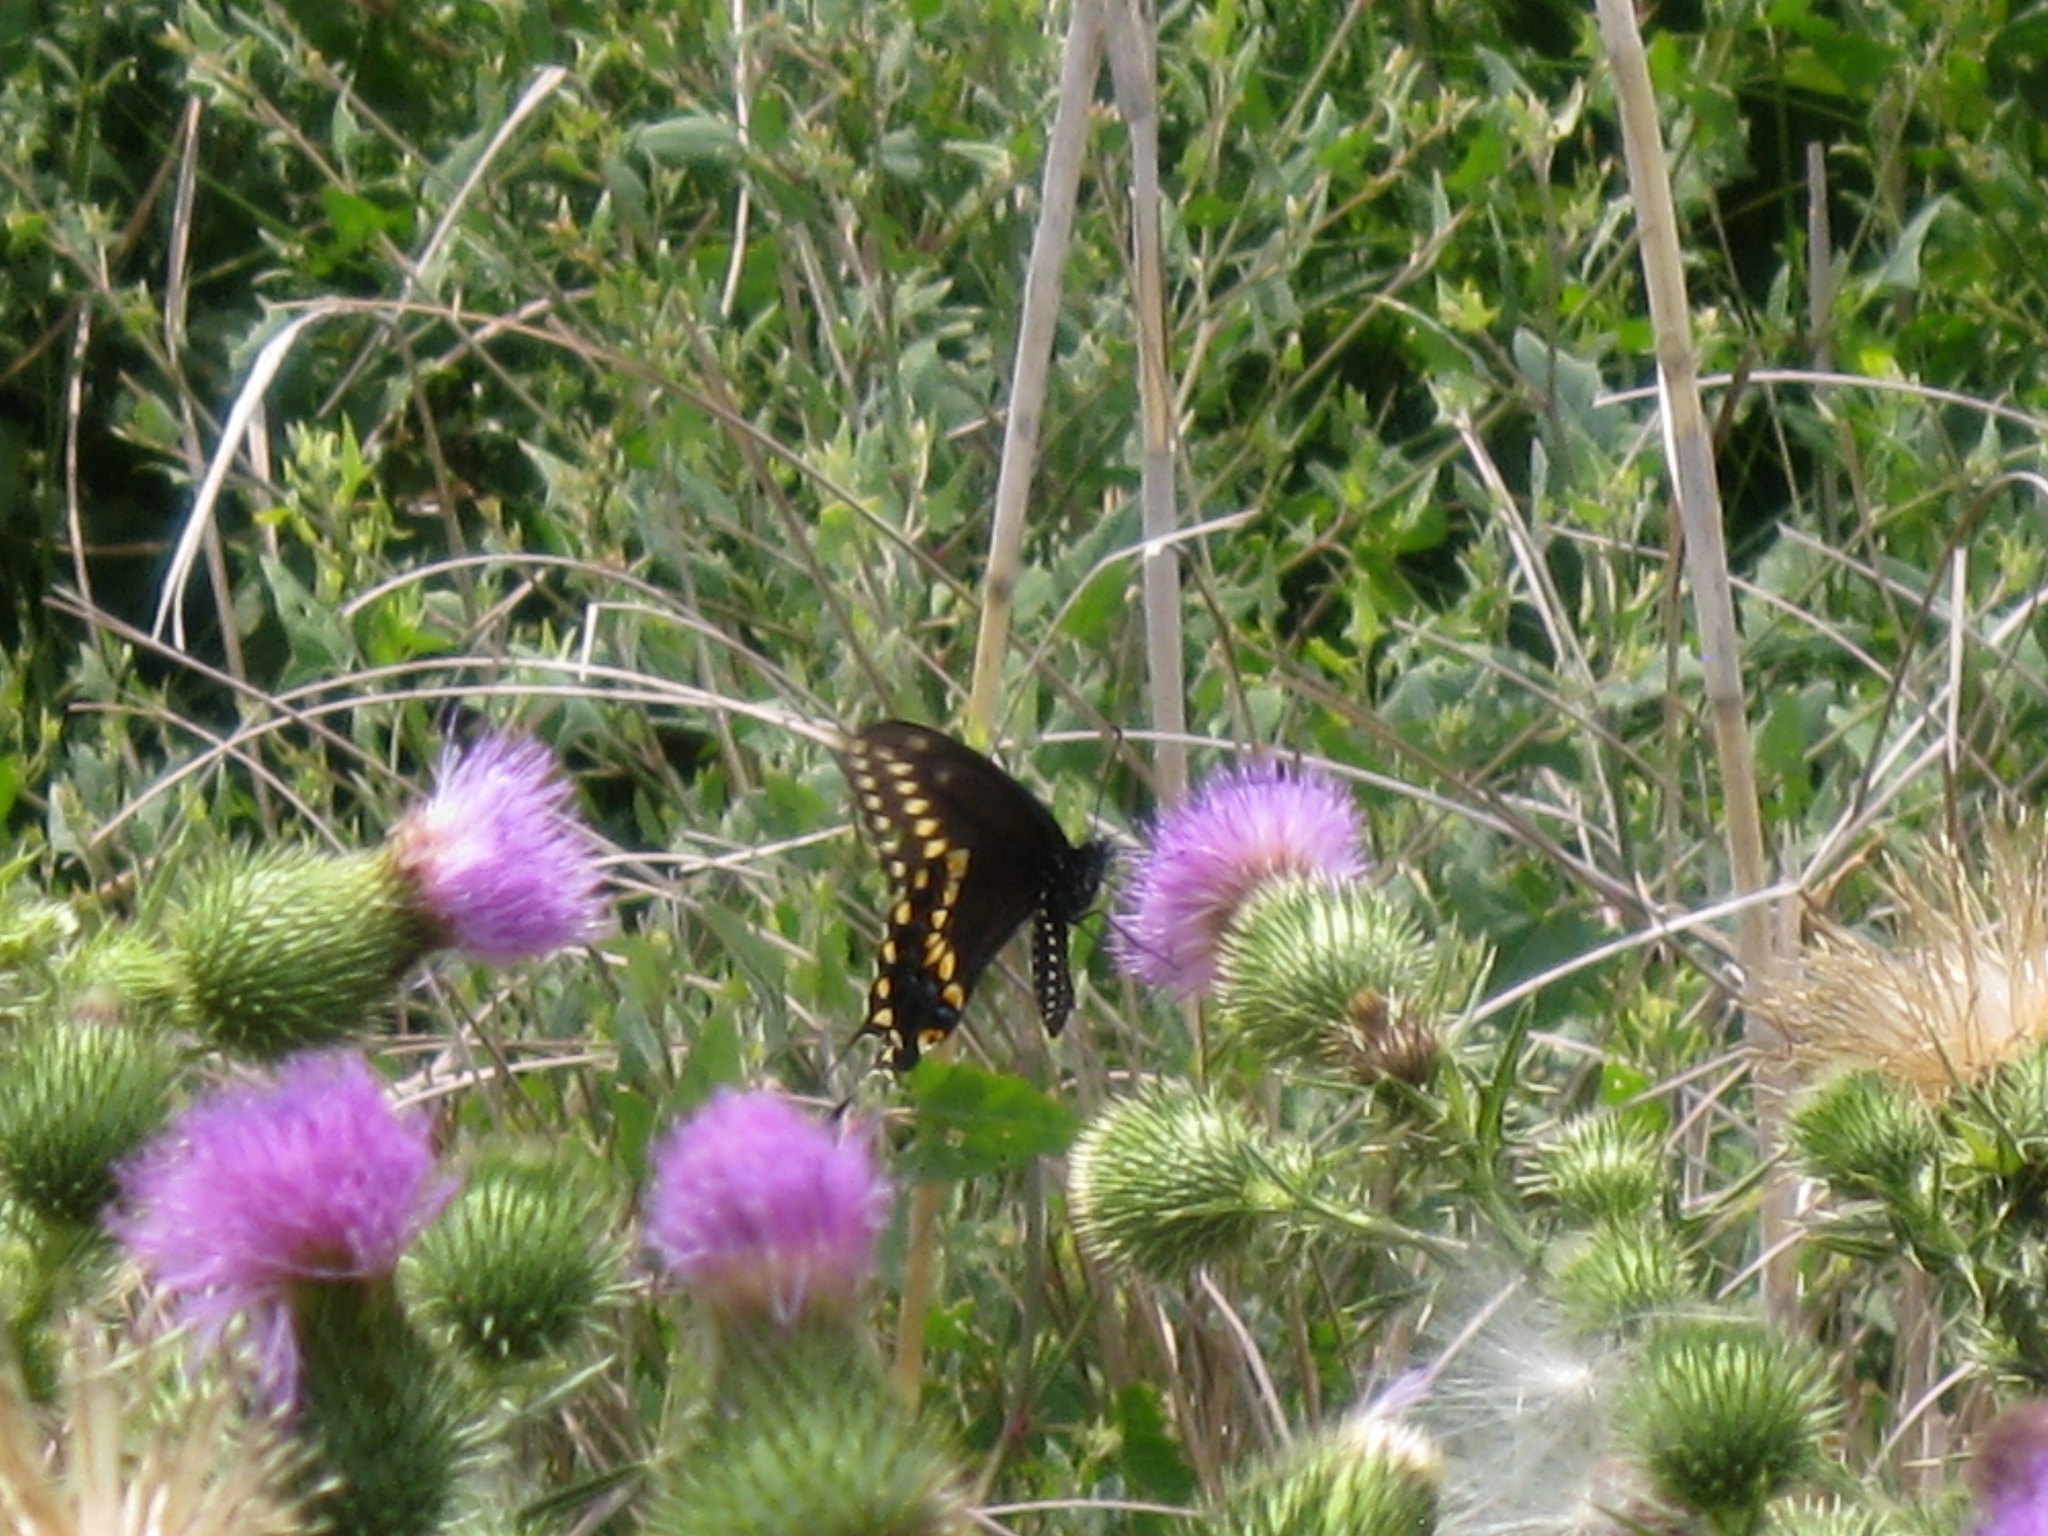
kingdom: Animalia
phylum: Arthropoda
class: Insecta
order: Lepidoptera
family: Papilionidae
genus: Papilio
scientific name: Papilio polyxenes
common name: Black swallowtail
